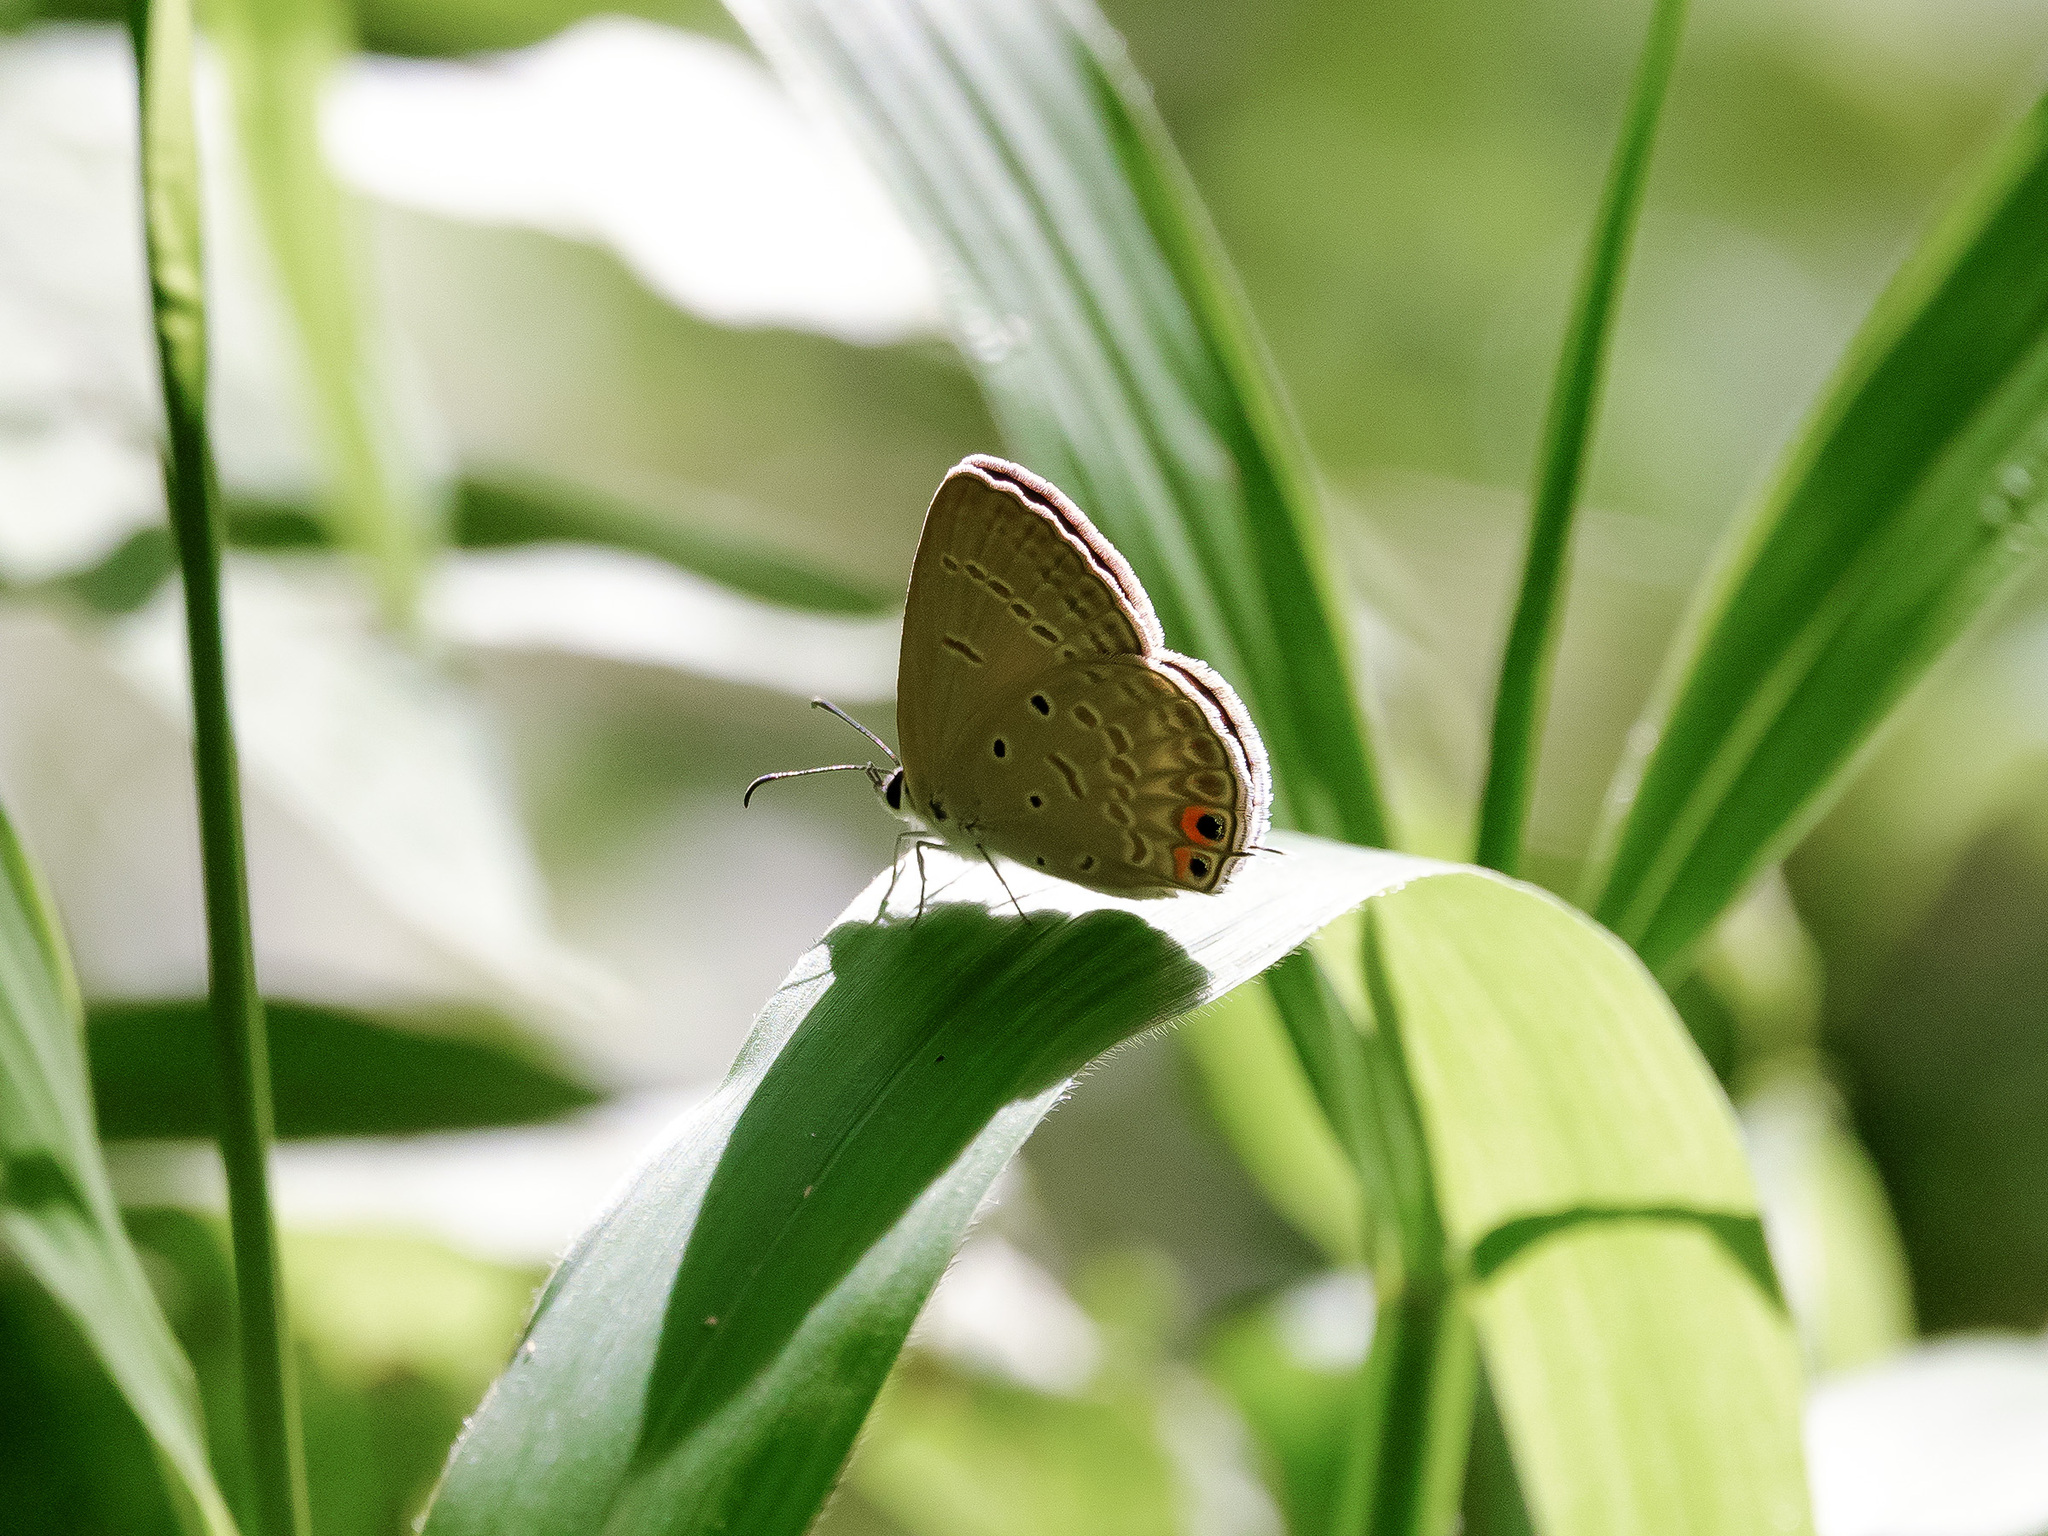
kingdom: Animalia
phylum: Arthropoda
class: Insecta
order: Lepidoptera
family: Lycaenidae
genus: Euchrysops
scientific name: Euchrysops cnejus
